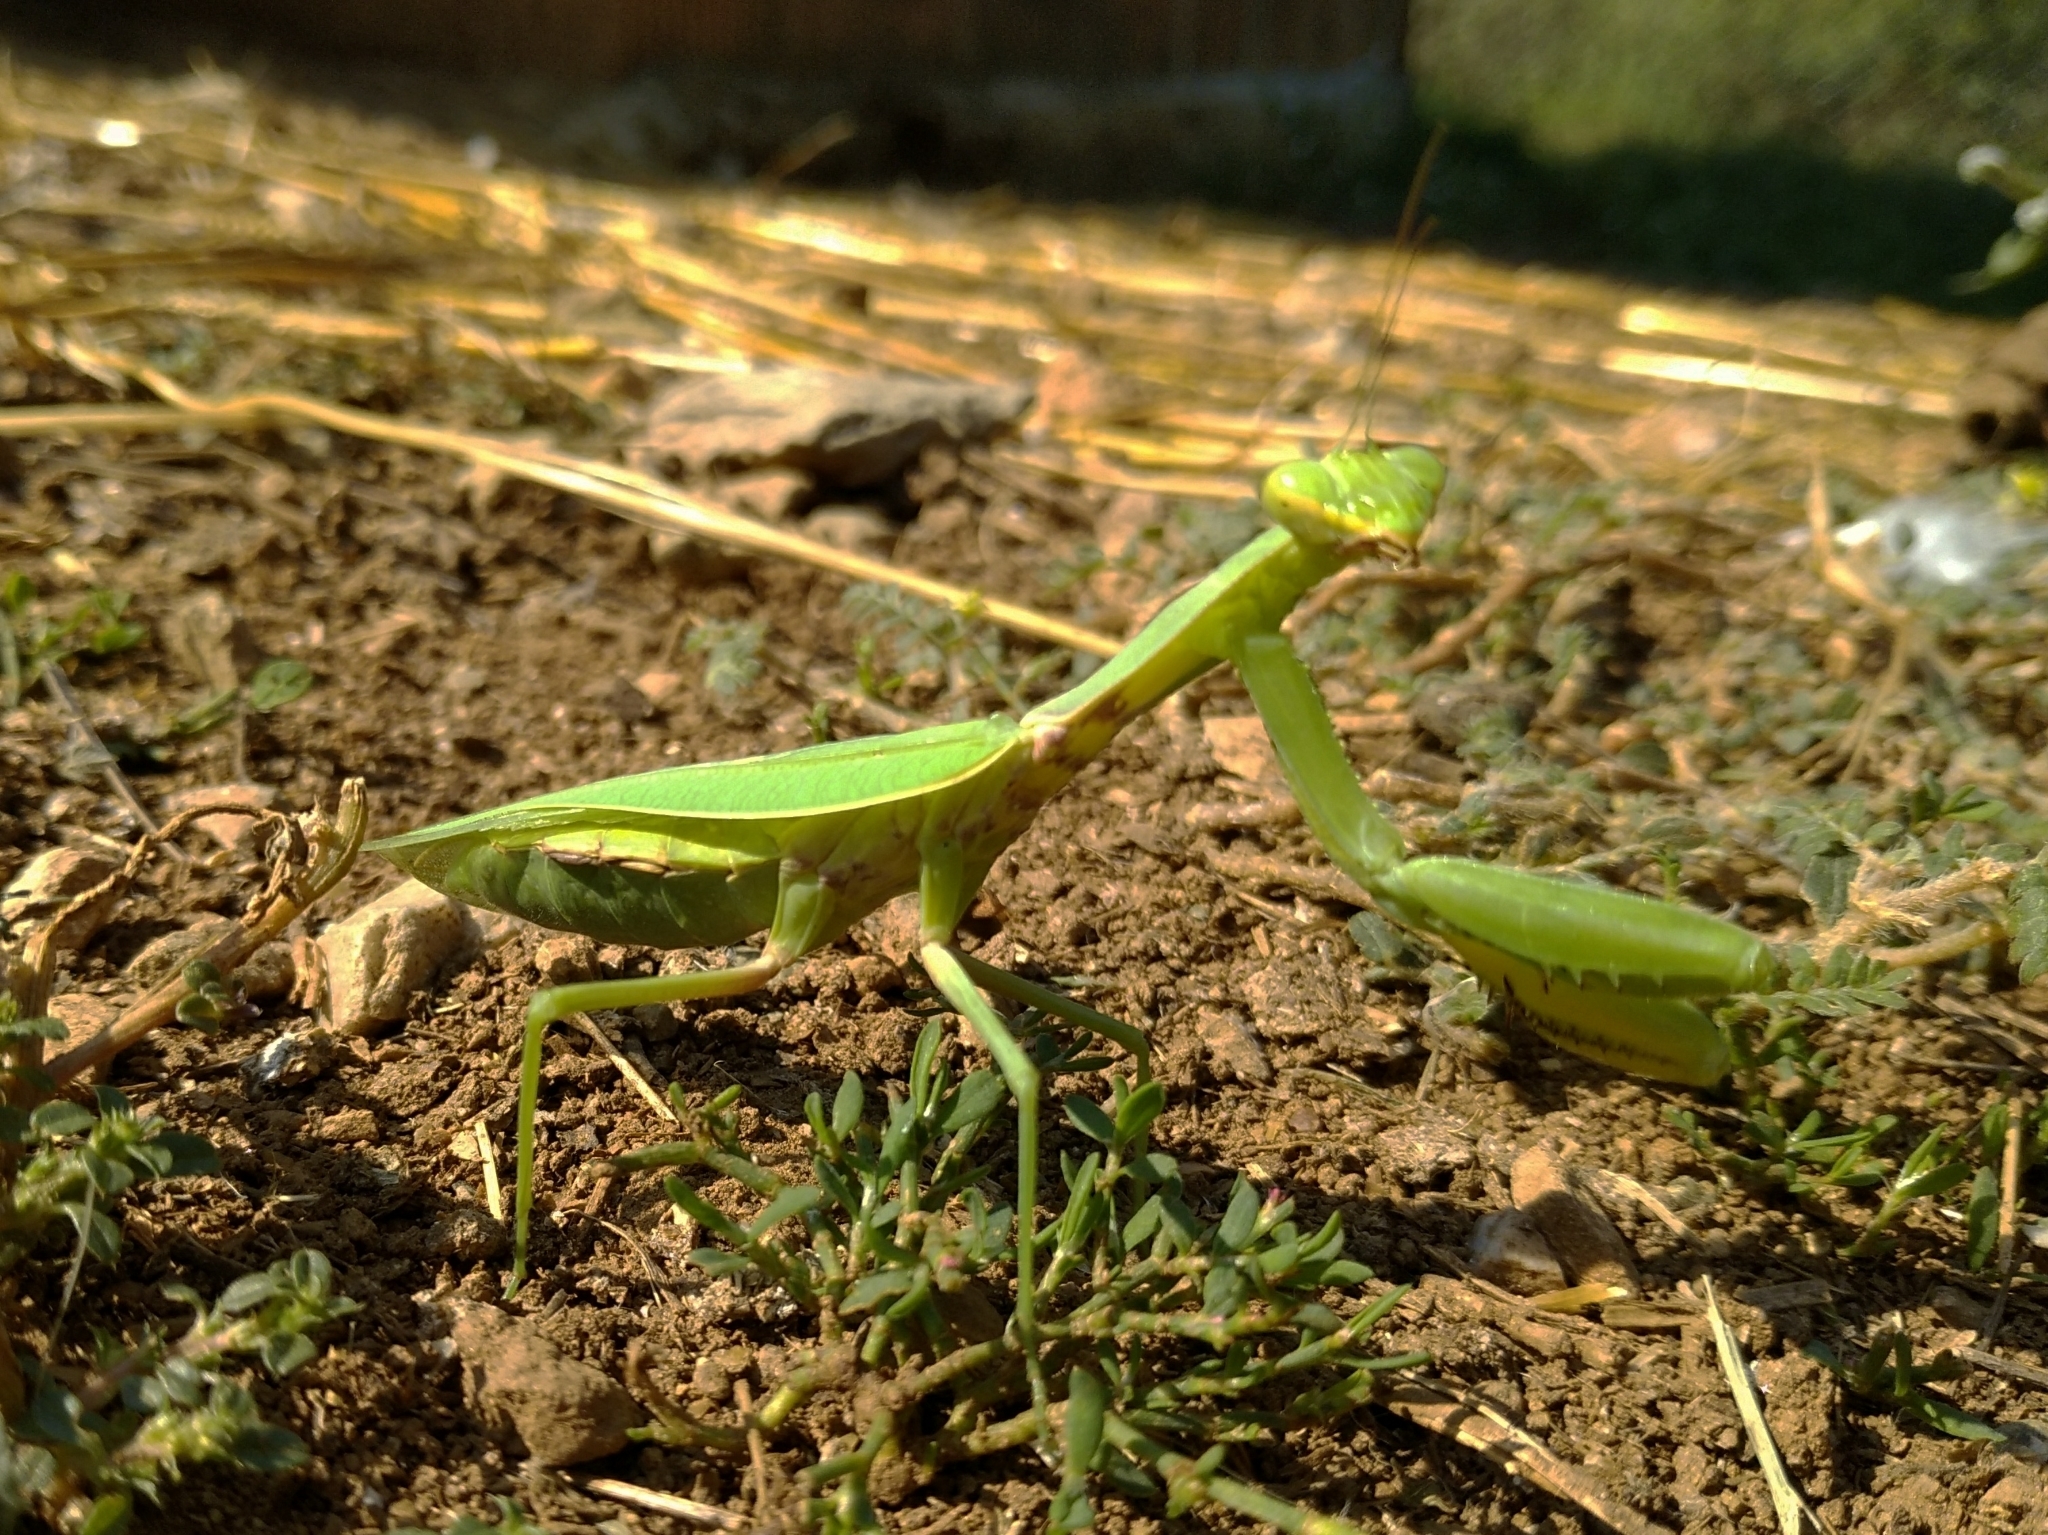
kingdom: Animalia
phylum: Arthropoda
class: Insecta
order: Mantodea
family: Mantidae
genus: Mantis
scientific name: Mantis religiosa
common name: Praying mantis
